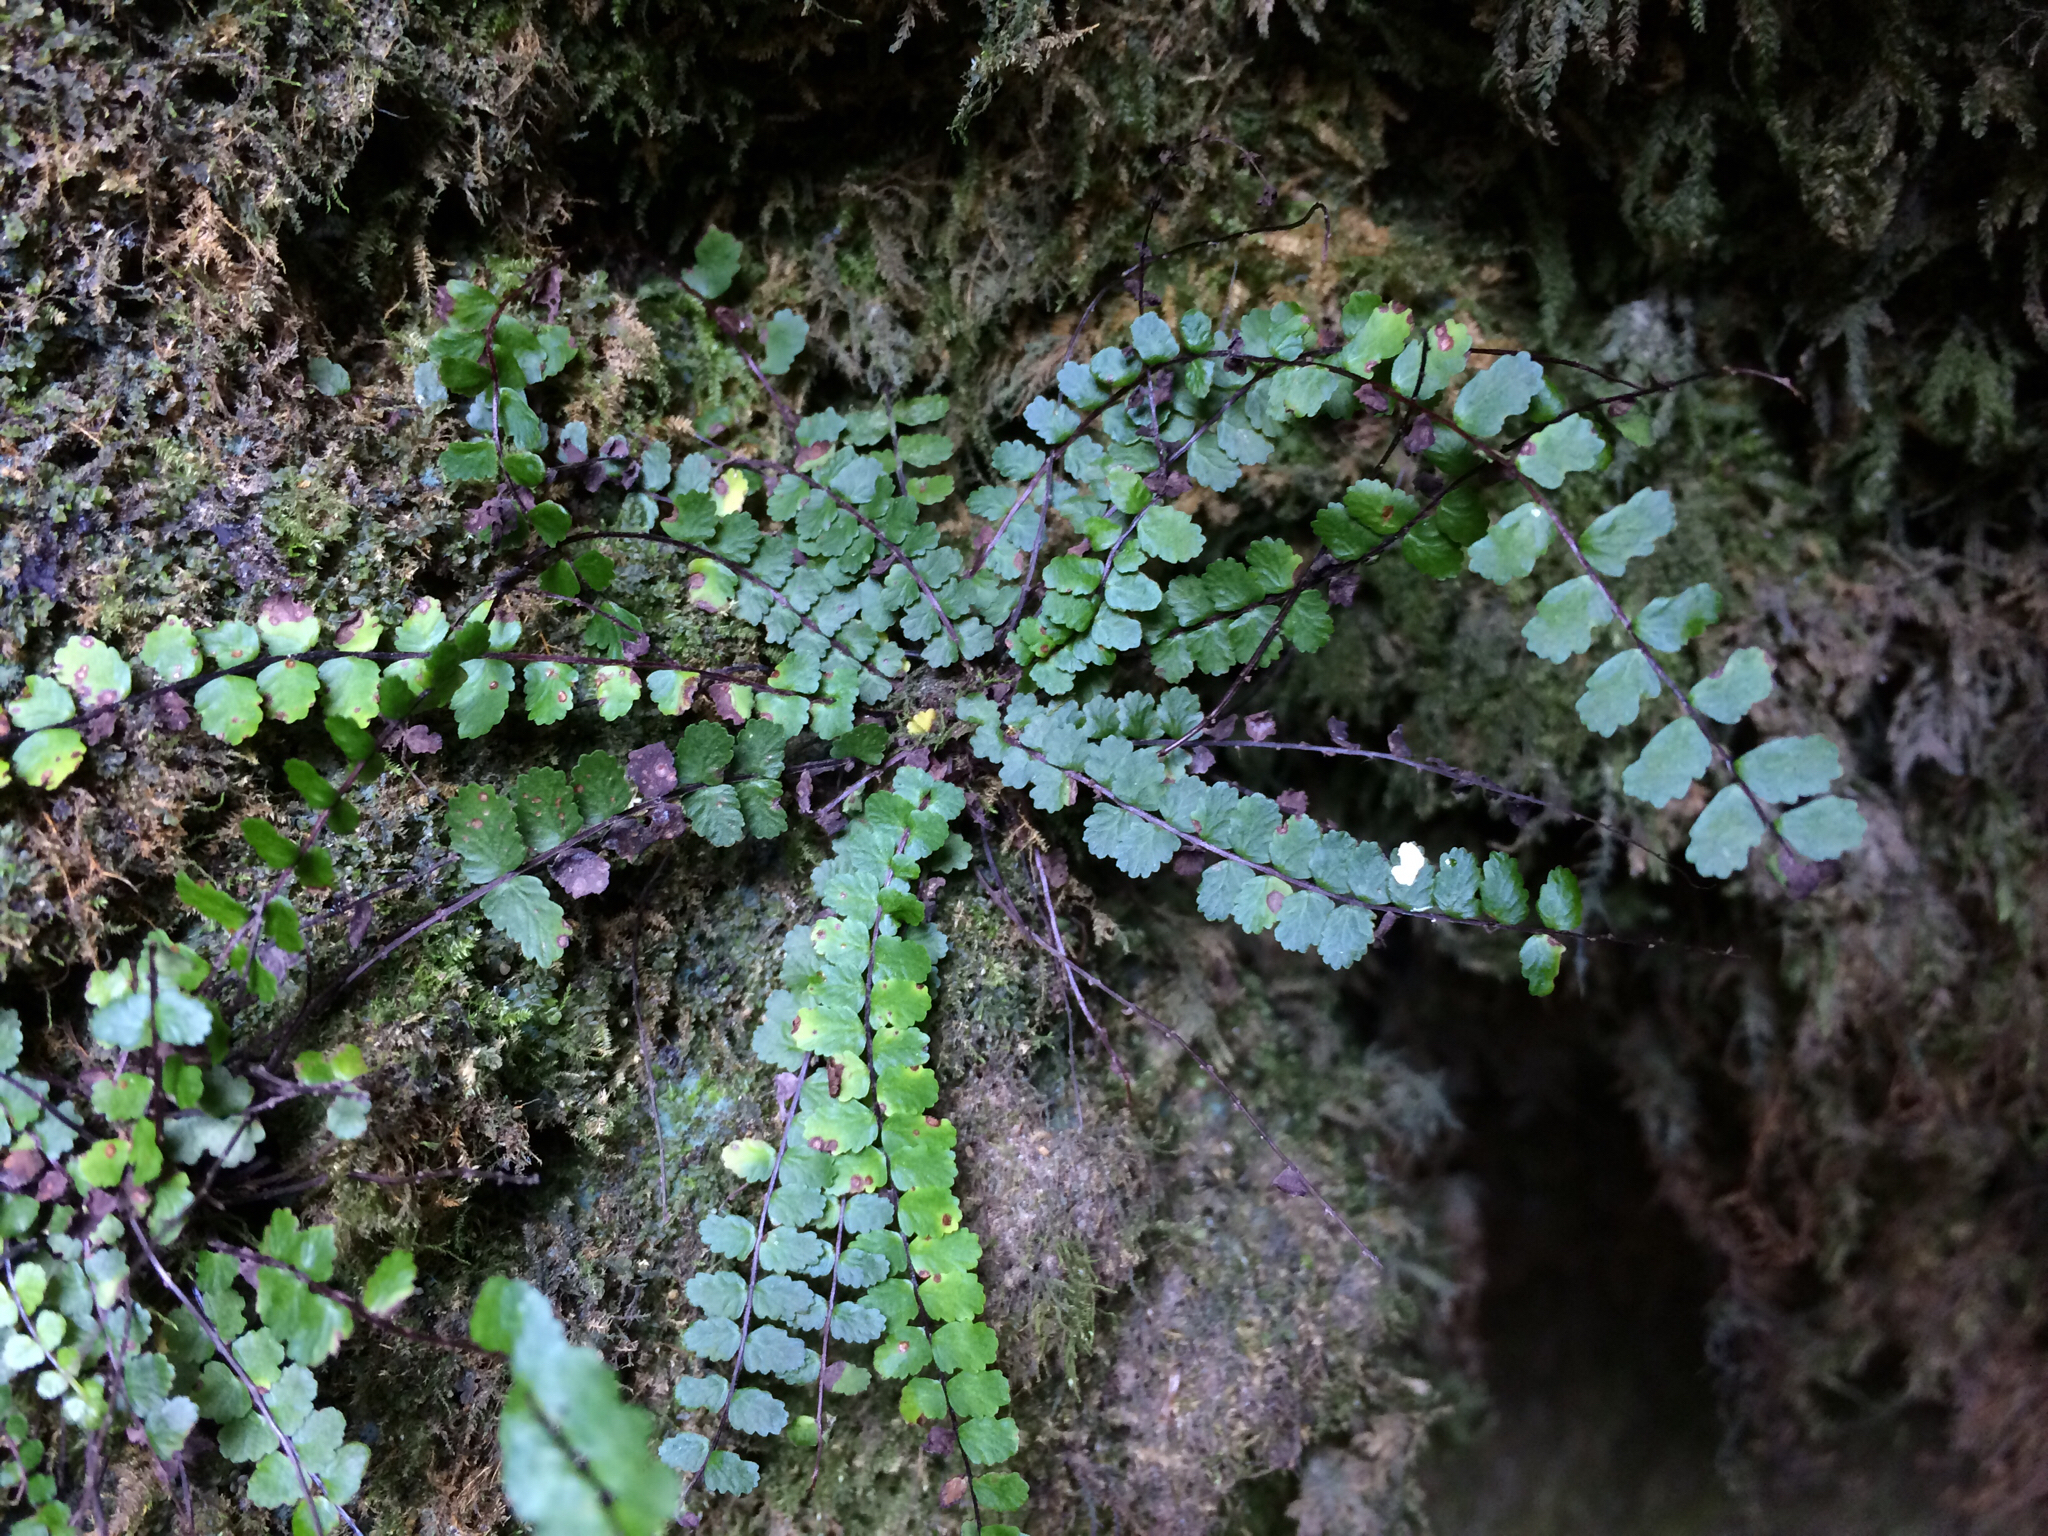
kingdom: Plantae
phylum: Tracheophyta
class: Polypodiopsida
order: Polypodiales
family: Aspleniaceae
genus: Asplenium
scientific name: Asplenium trichomanes
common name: Maidenhair spleenwort
